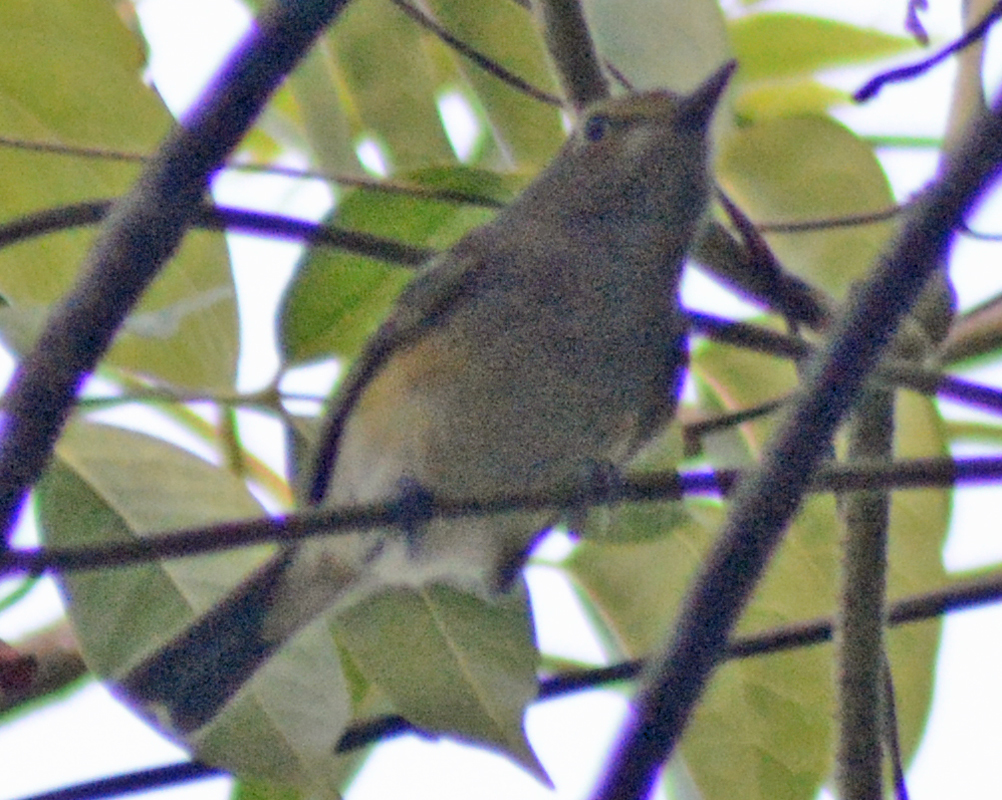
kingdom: Animalia
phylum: Chordata
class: Aves
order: Passeriformes
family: Vireonidae
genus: Vireo
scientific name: Vireo griseus
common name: White-eyed vireo
